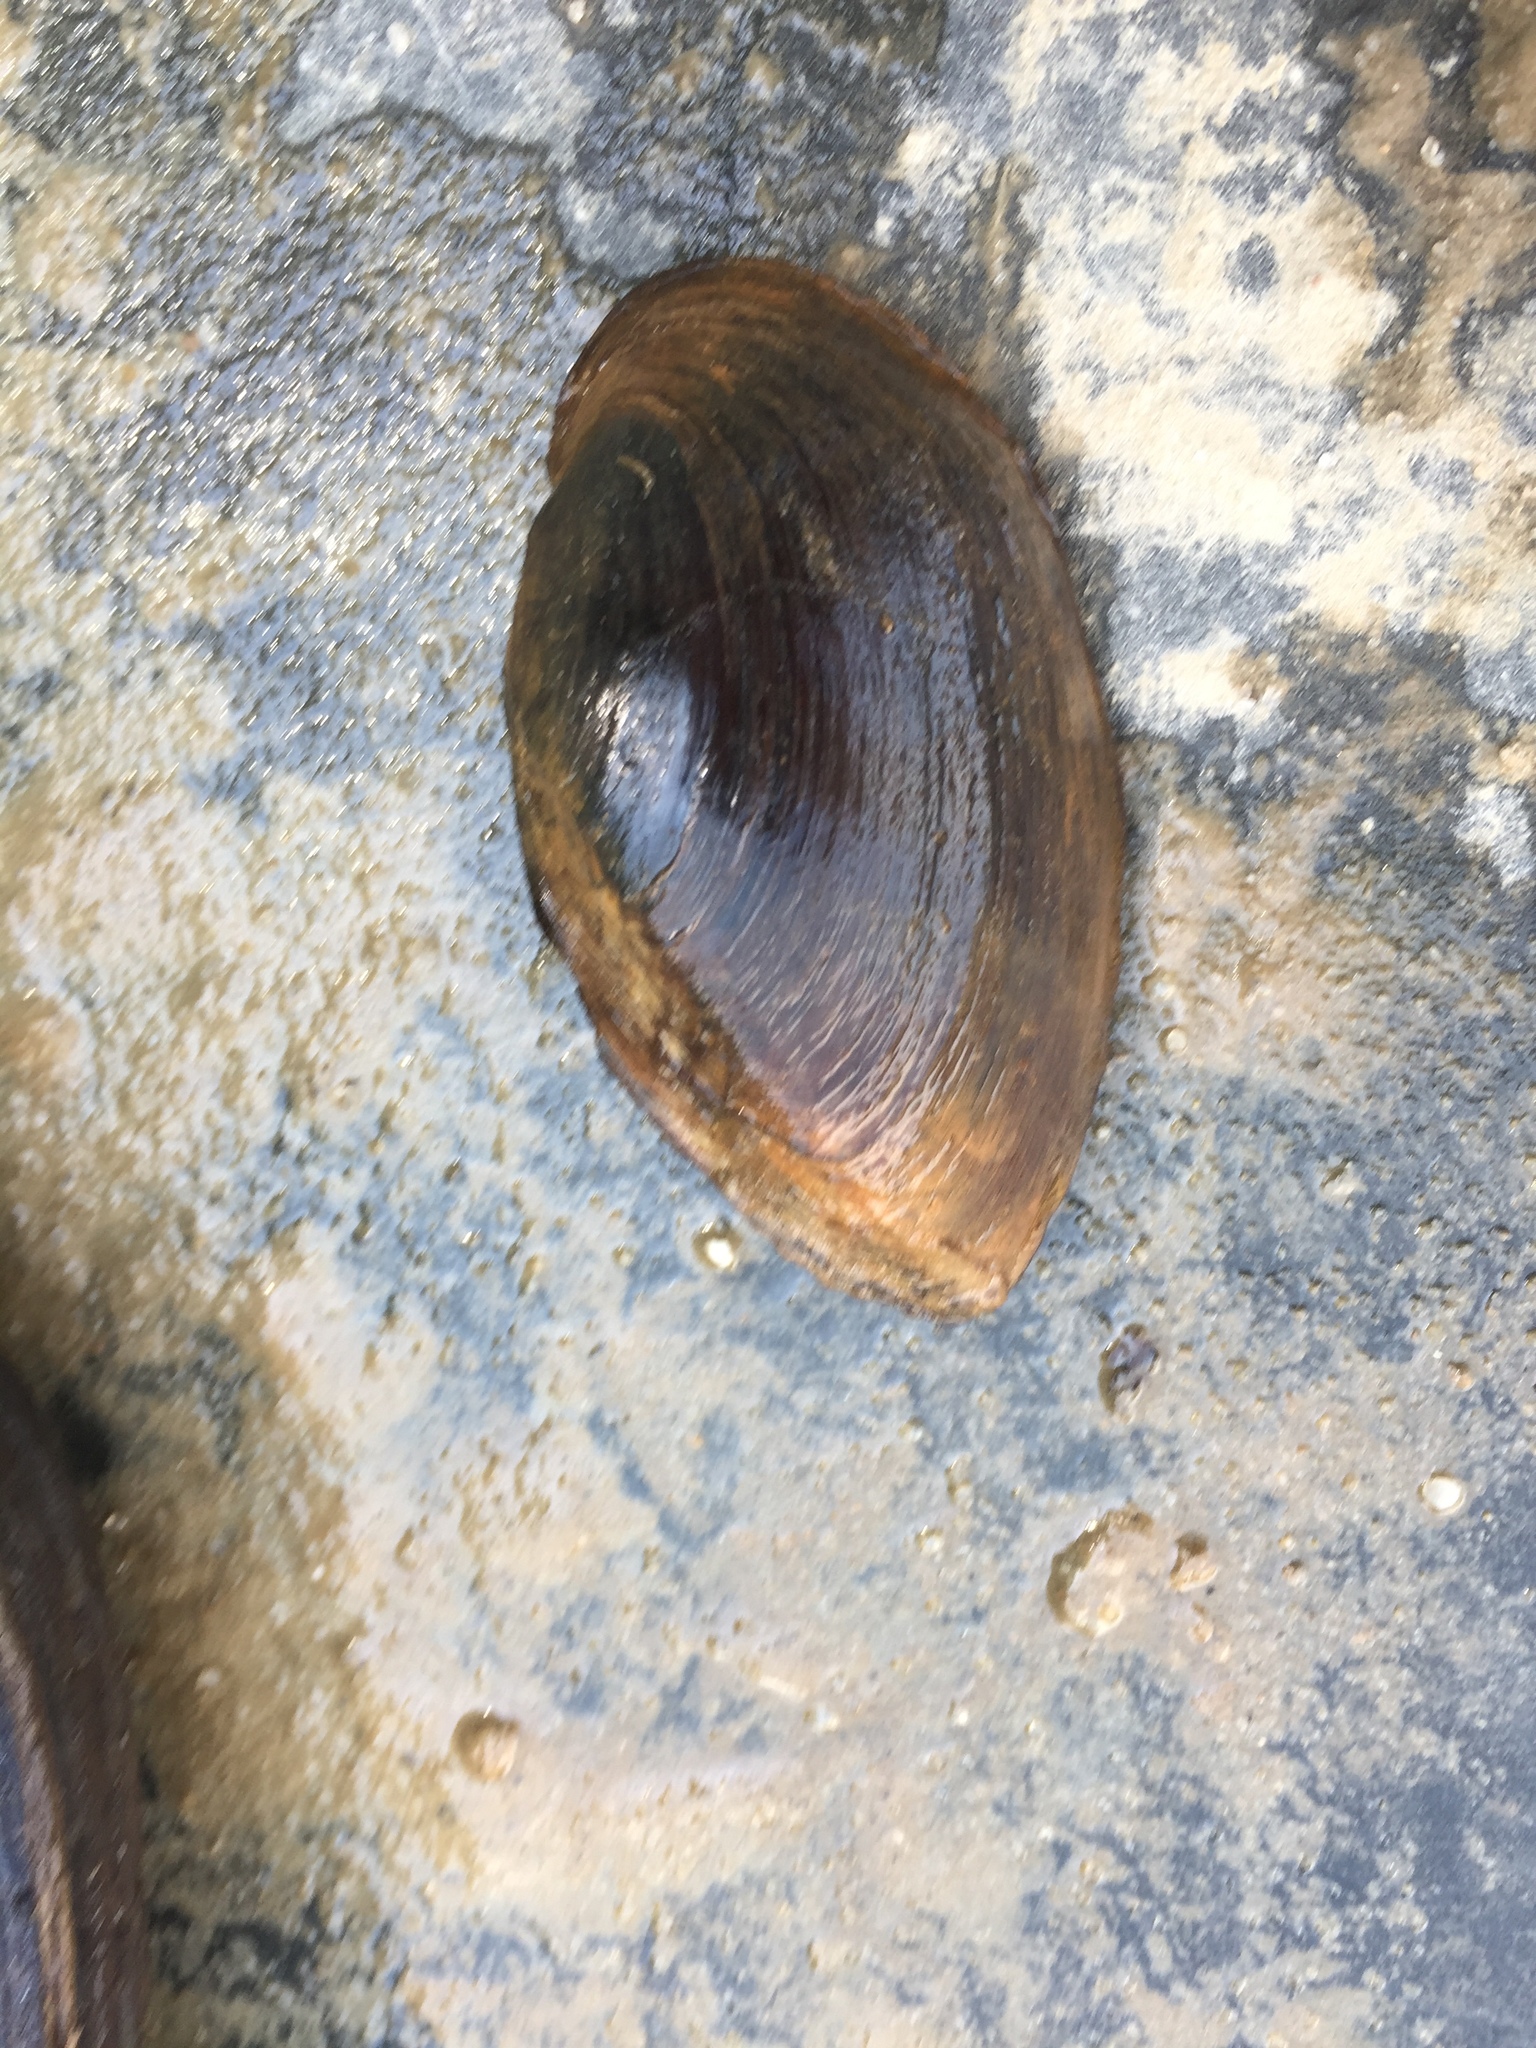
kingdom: Animalia
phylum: Mollusca
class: Bivalvia
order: Unionida
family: Unionidae
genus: Elliptio
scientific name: Elliptio crassidens
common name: Blue ham
